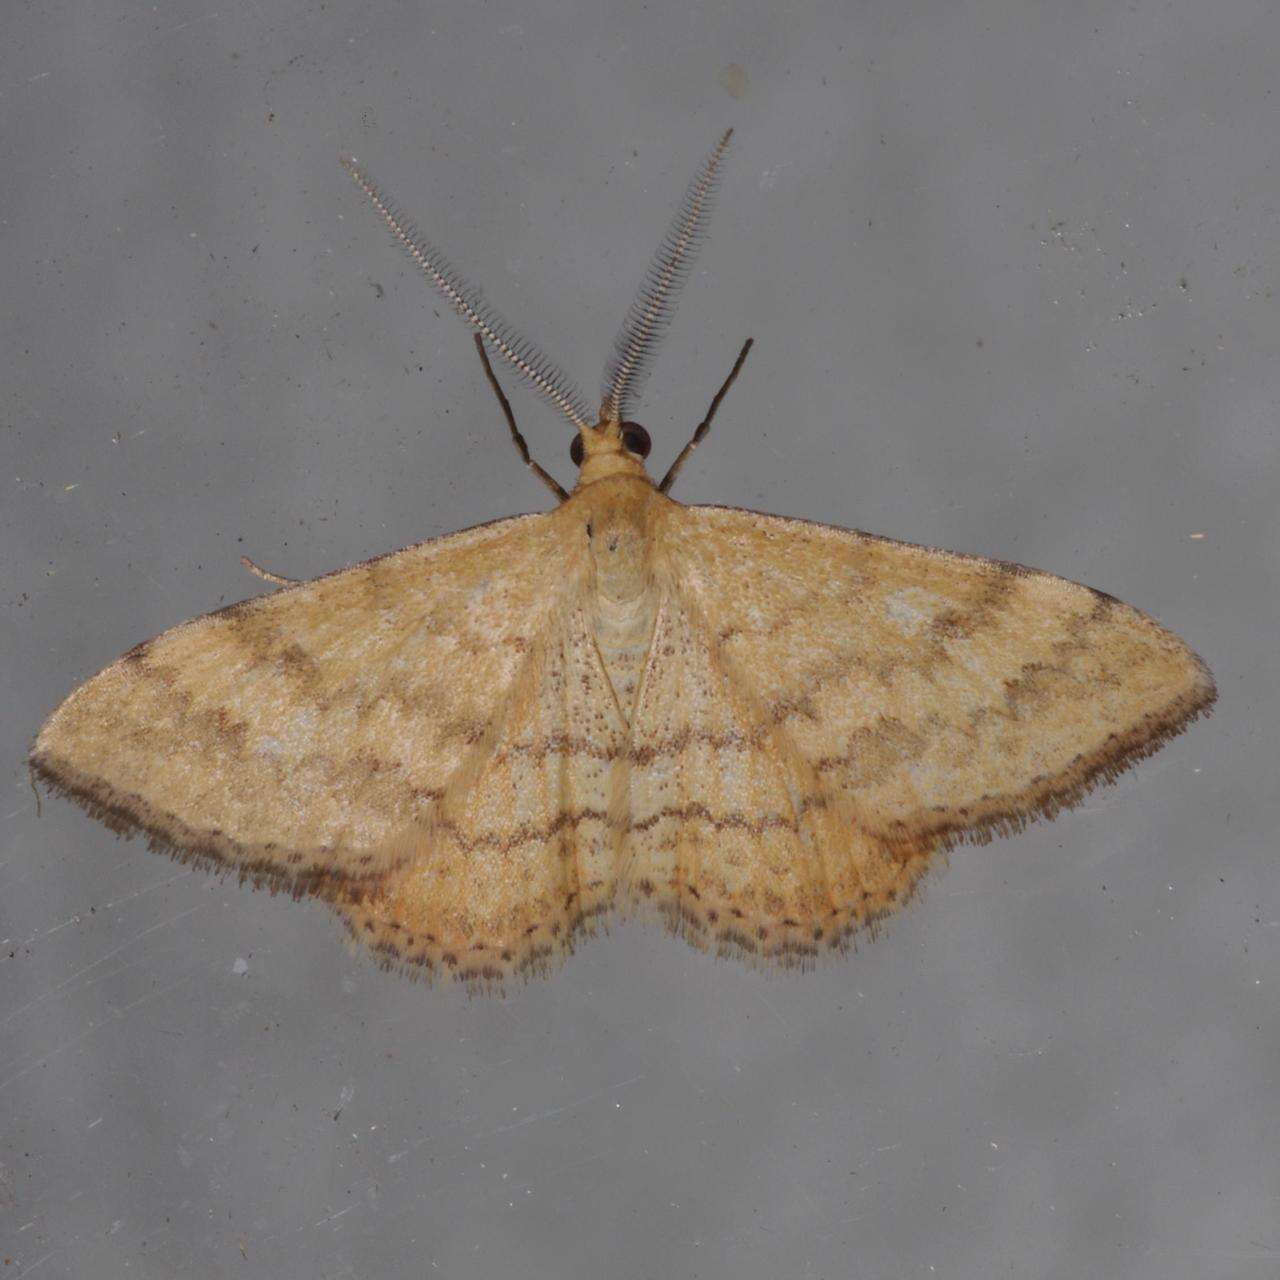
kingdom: Animalia
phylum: Arthropoda
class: Insecta
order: Lepidoptera
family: Geometridae
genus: Scopula
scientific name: Scopula rubraria
